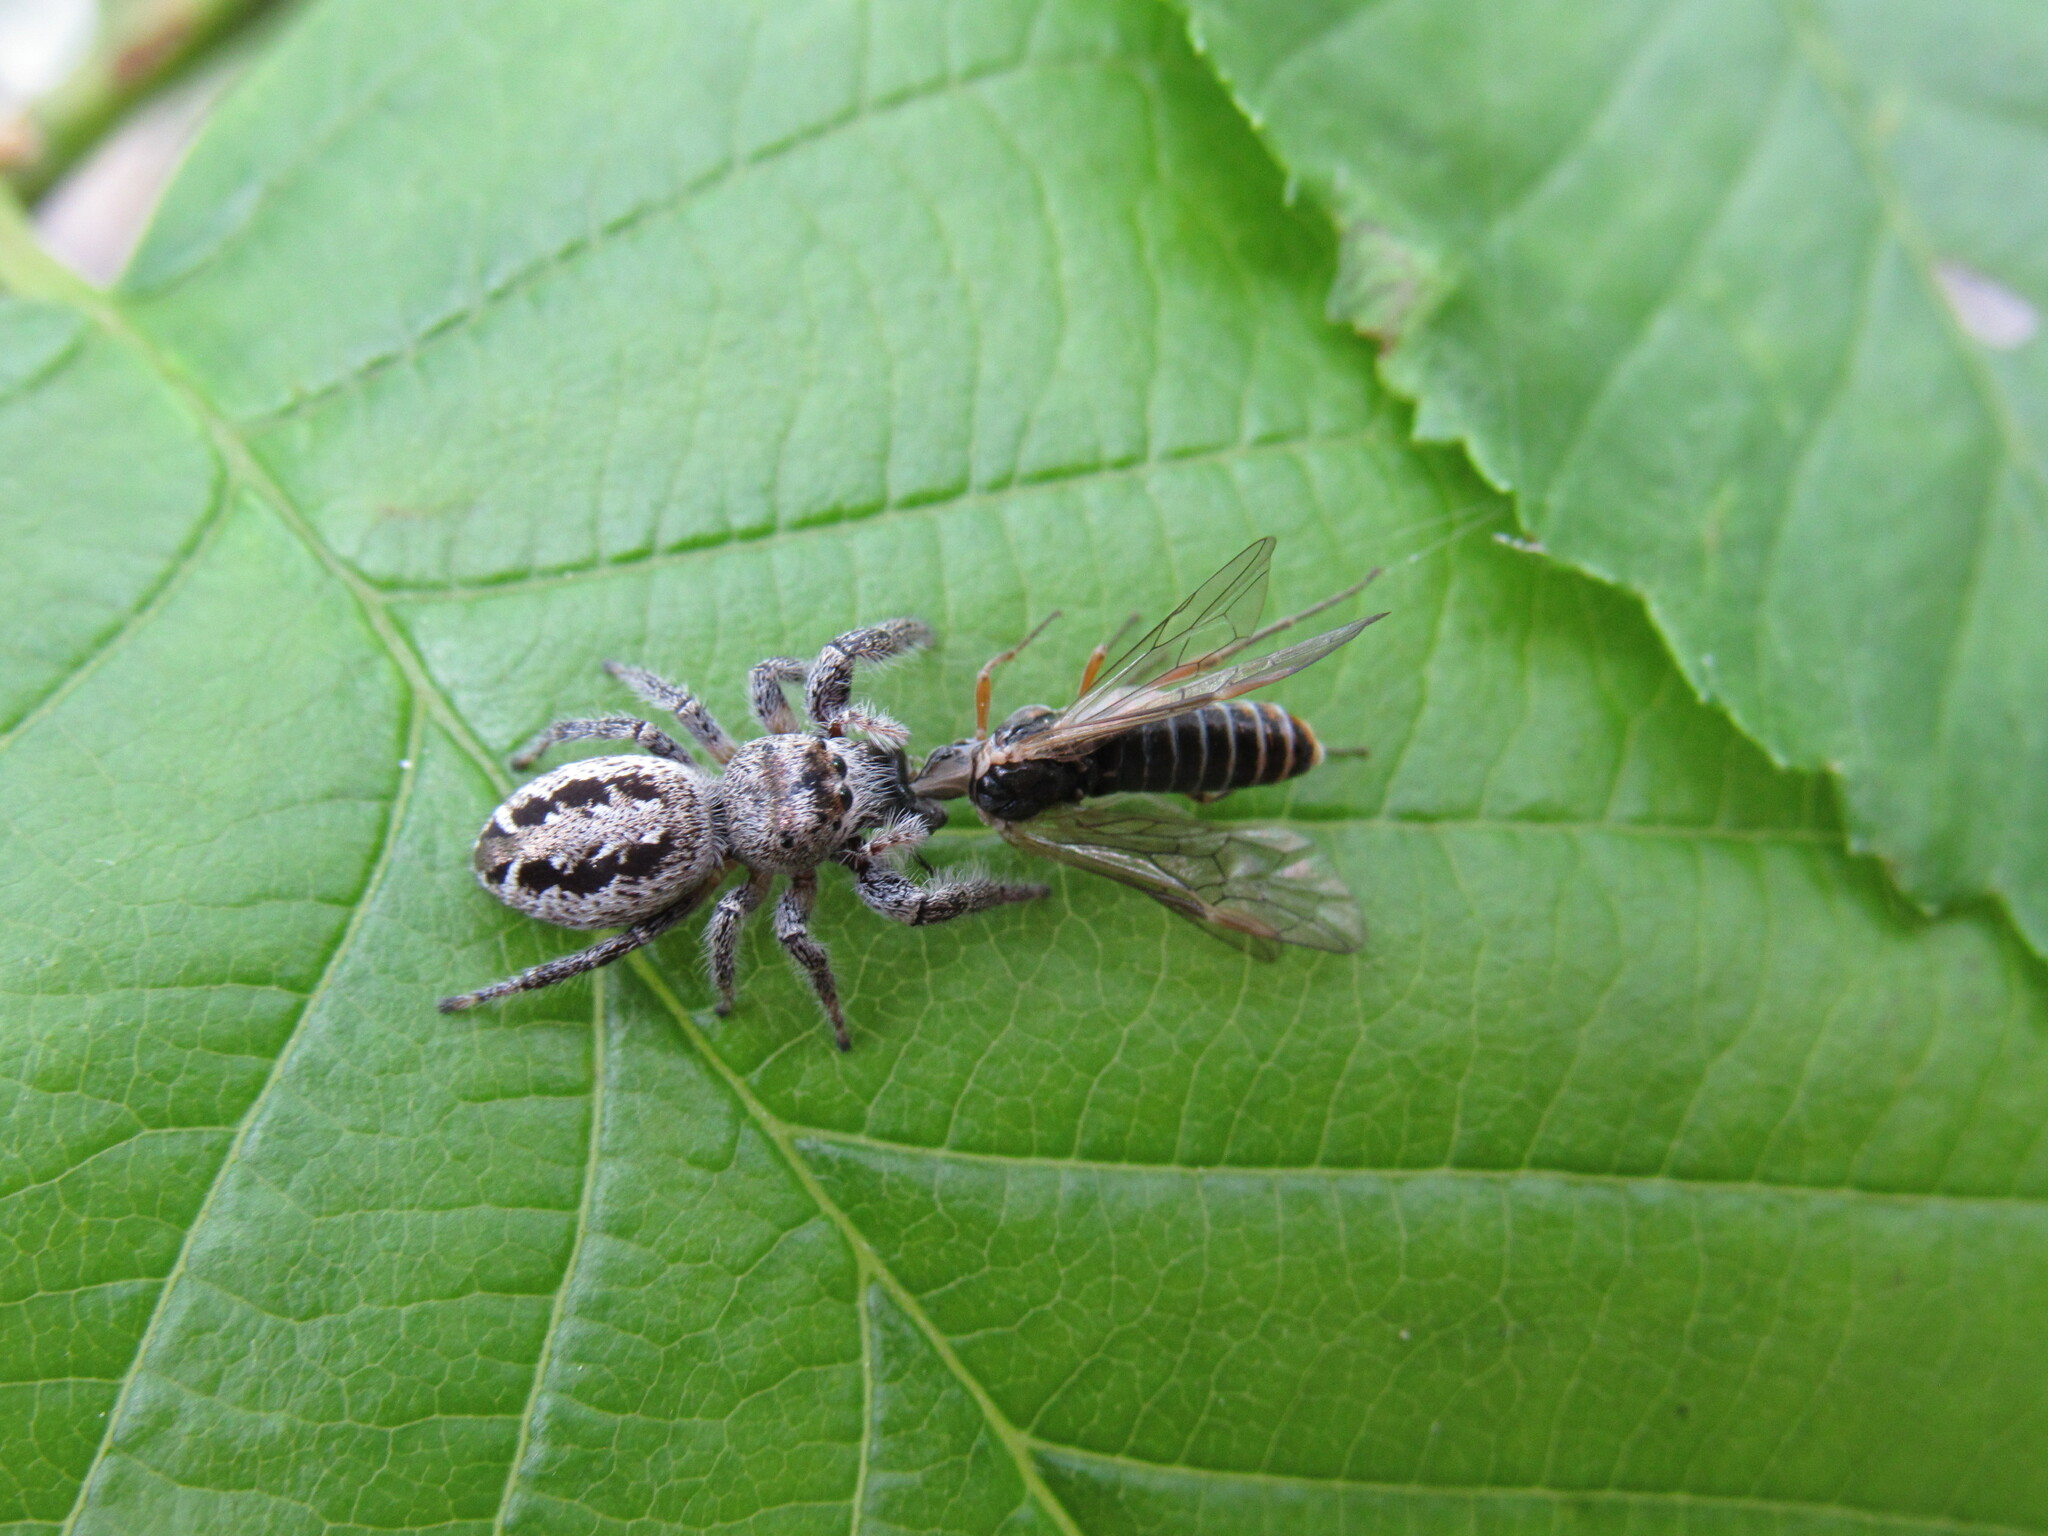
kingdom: Animalia
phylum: Arthropoda
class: Arachnida
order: Araneae
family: Salticidae
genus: Eris
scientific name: Eris militaris
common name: Bronze jumper
